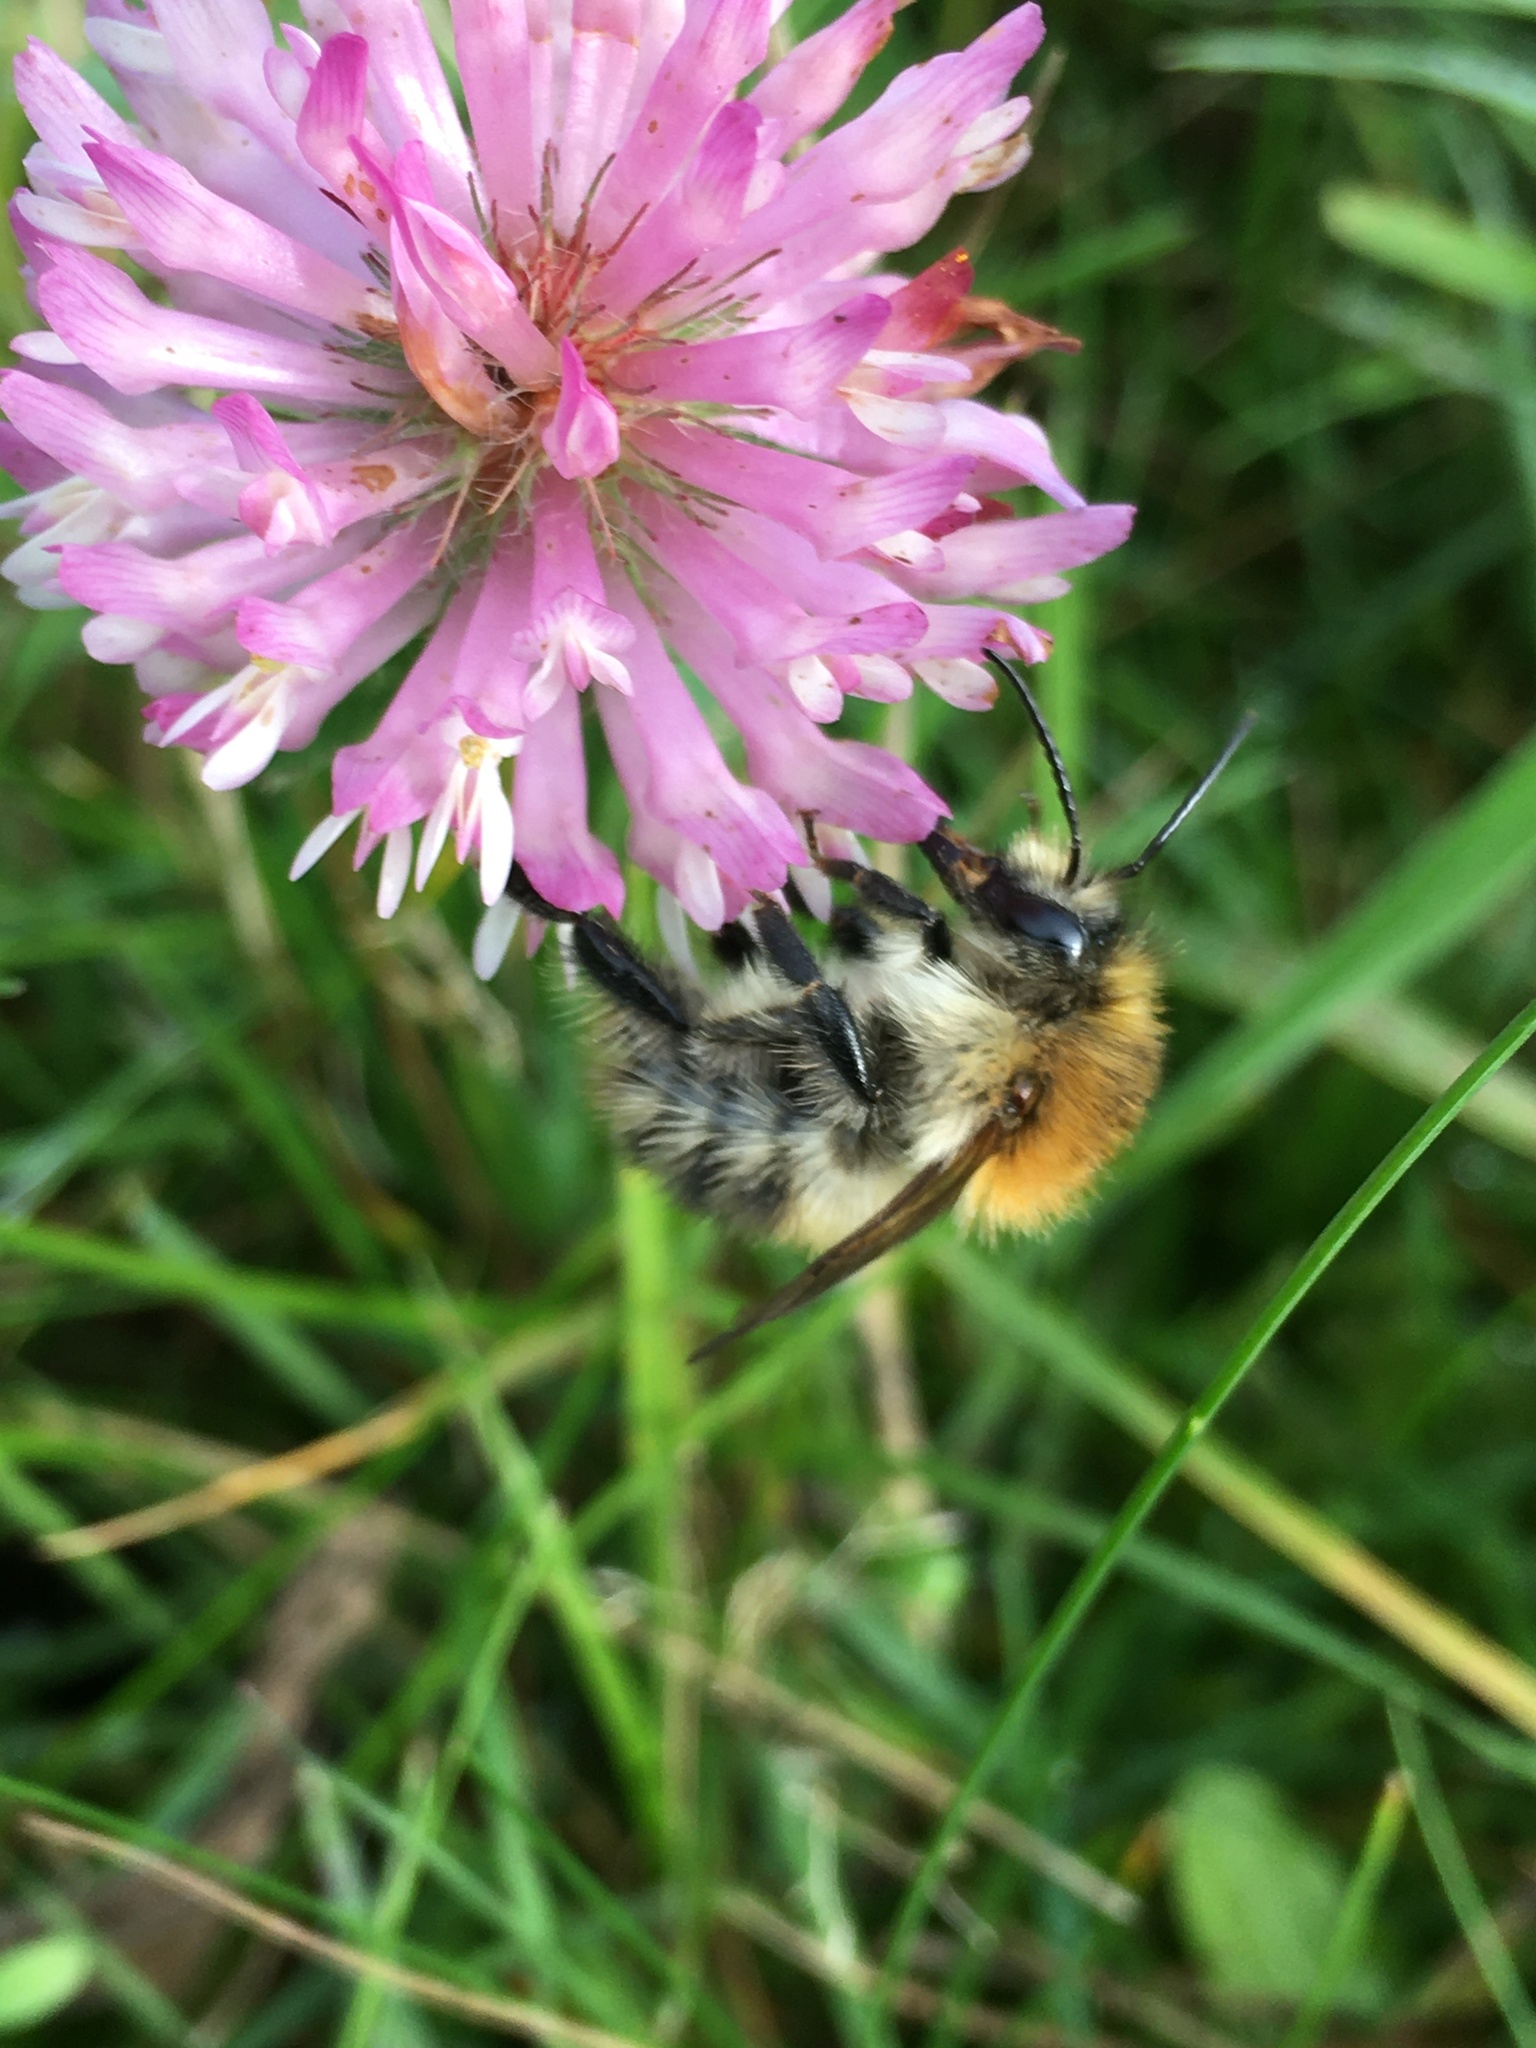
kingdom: Animalia
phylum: Arthropoda
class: Insecta
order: Hymenoptera
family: Apidae
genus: Bombus
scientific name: Bombus pascuorum
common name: Common carder bee
